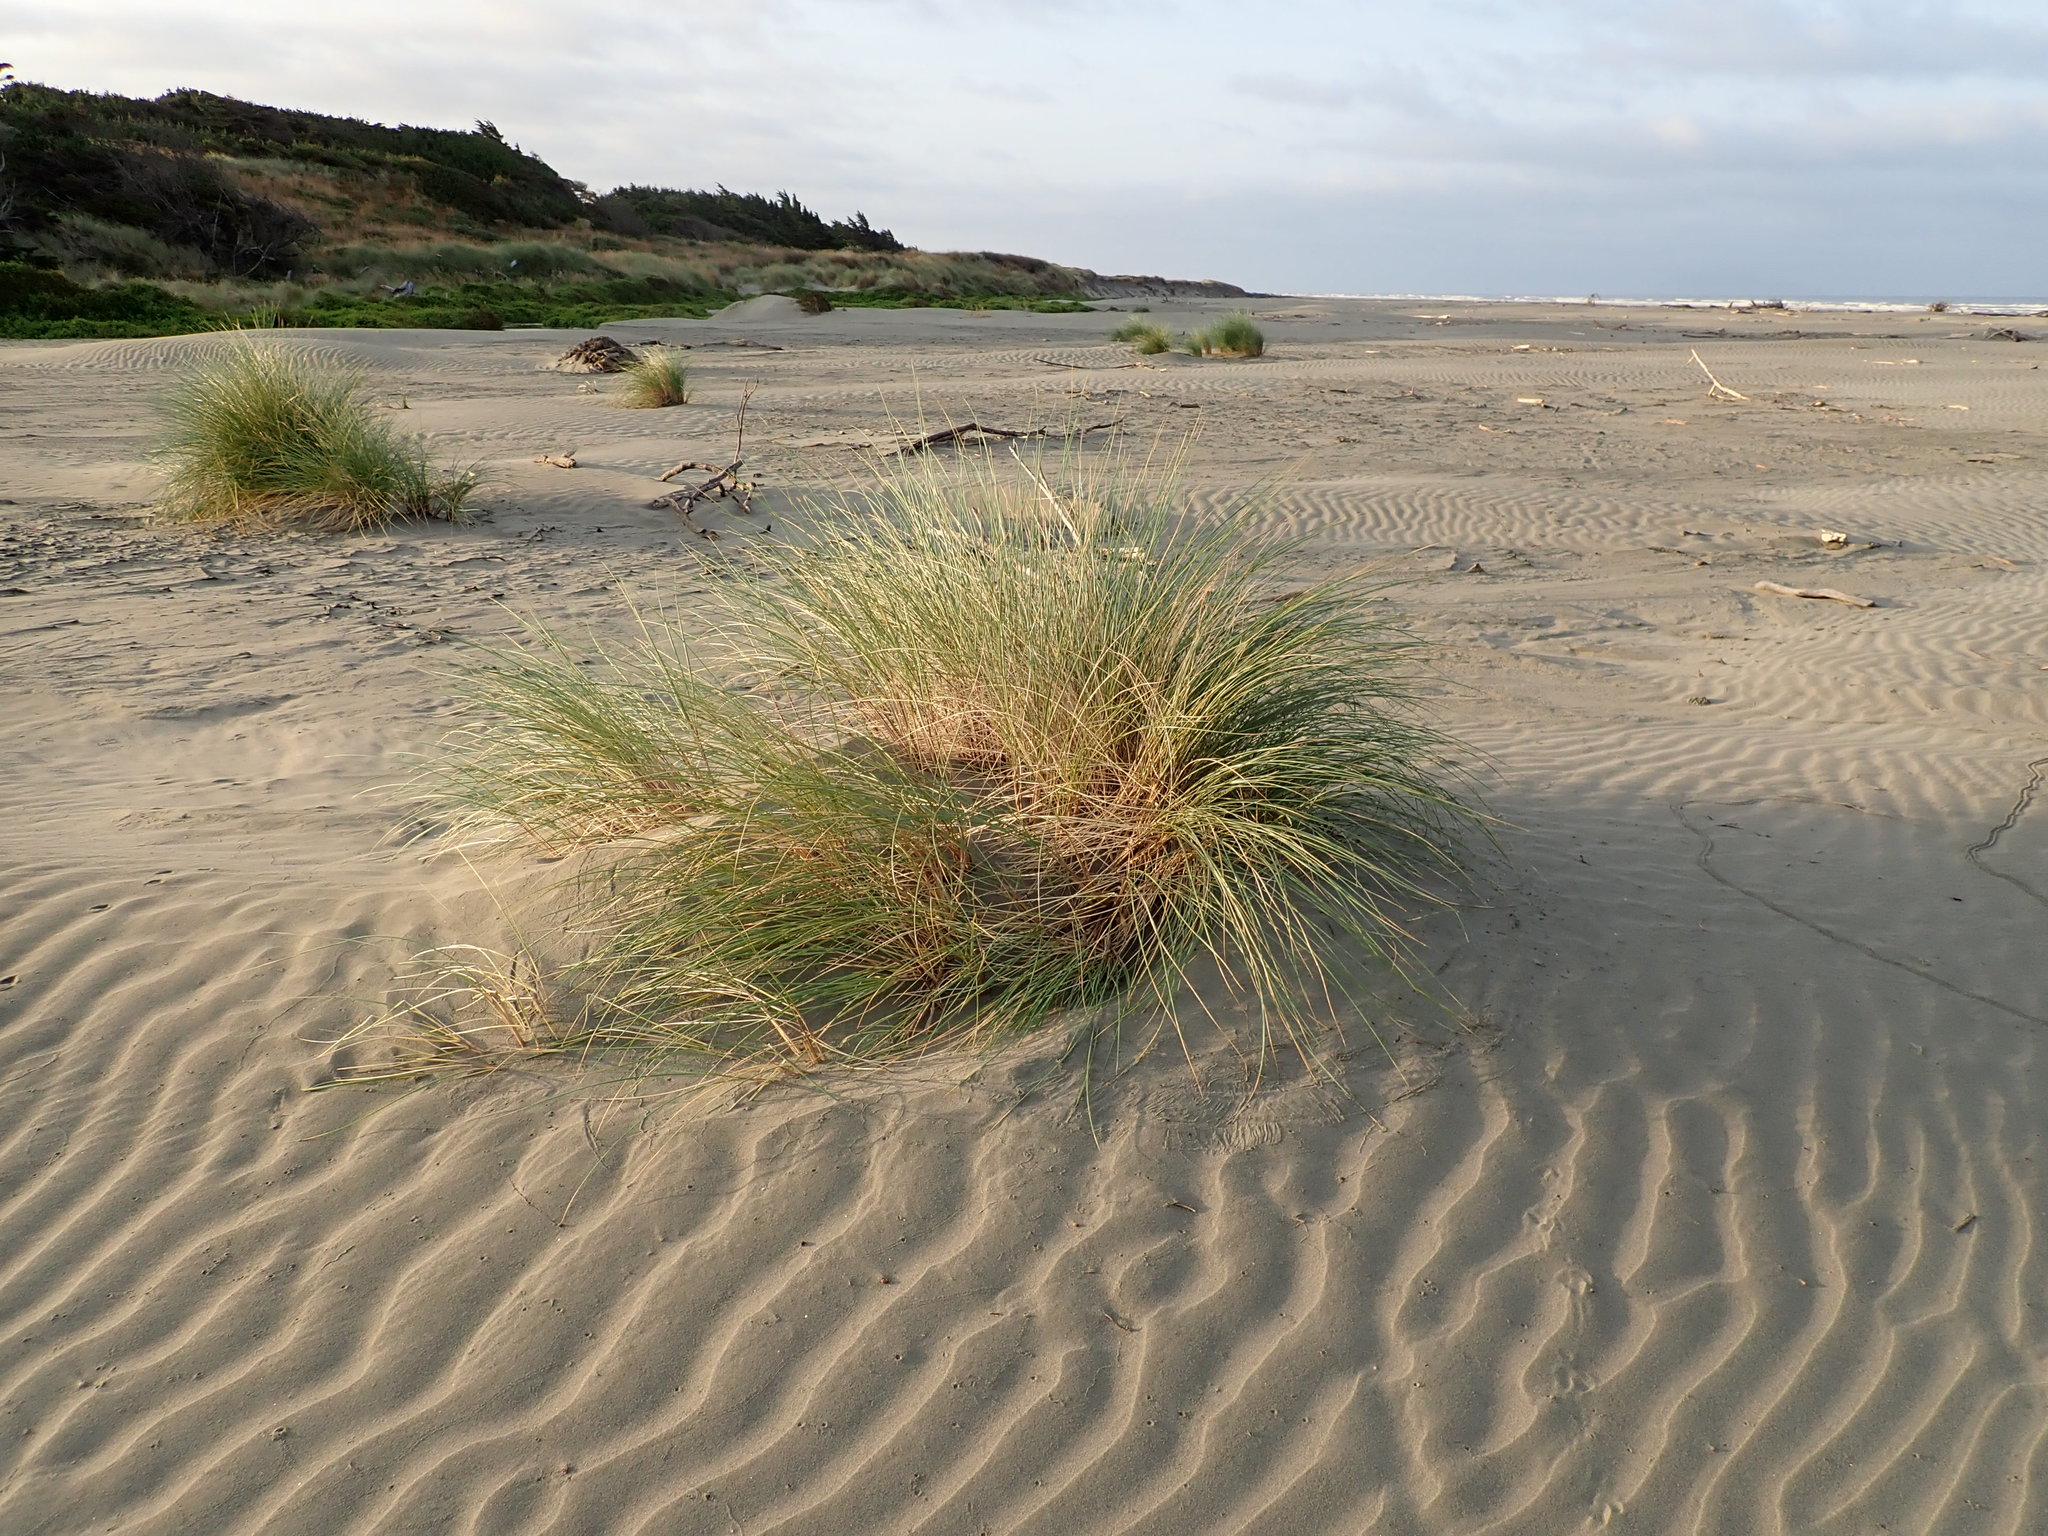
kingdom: Plantae
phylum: Tracheophyta
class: Liliopsida
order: Poales
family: Poaceae
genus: Calamagrostis
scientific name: Calamagrostis arenaria
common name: European beachgrass
